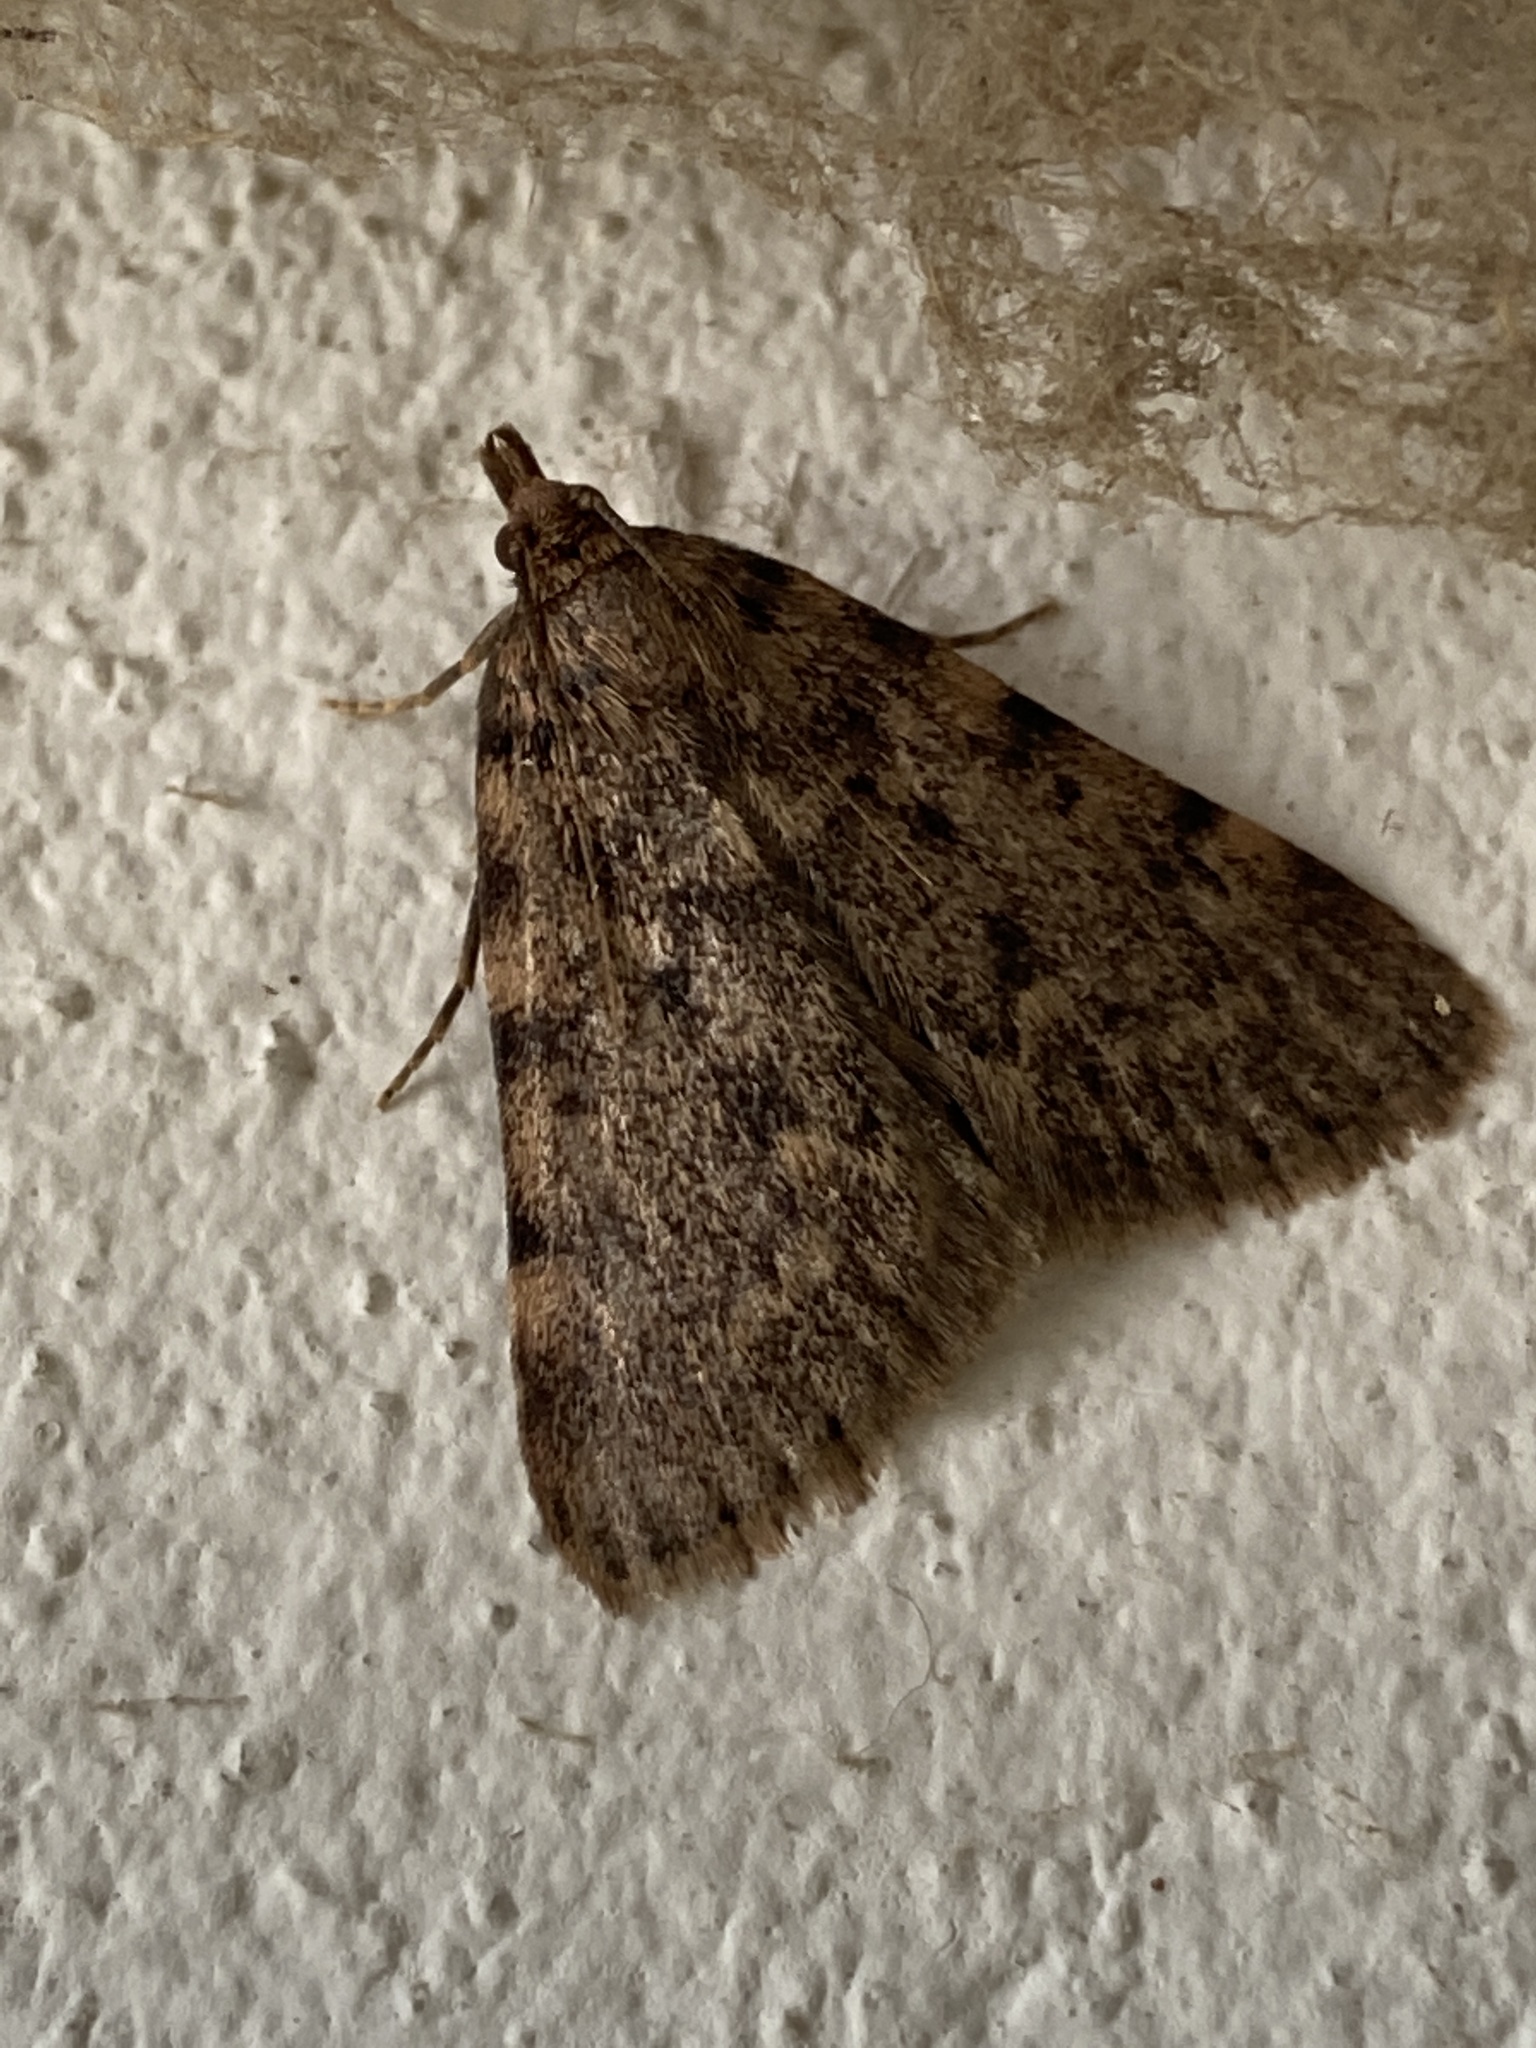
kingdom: Animalia
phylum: Arthropoda
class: Insecta
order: Lepidoptera
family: Pyralidae
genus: Aglossa
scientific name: Aglossa pinguinalis
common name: Large tabby
